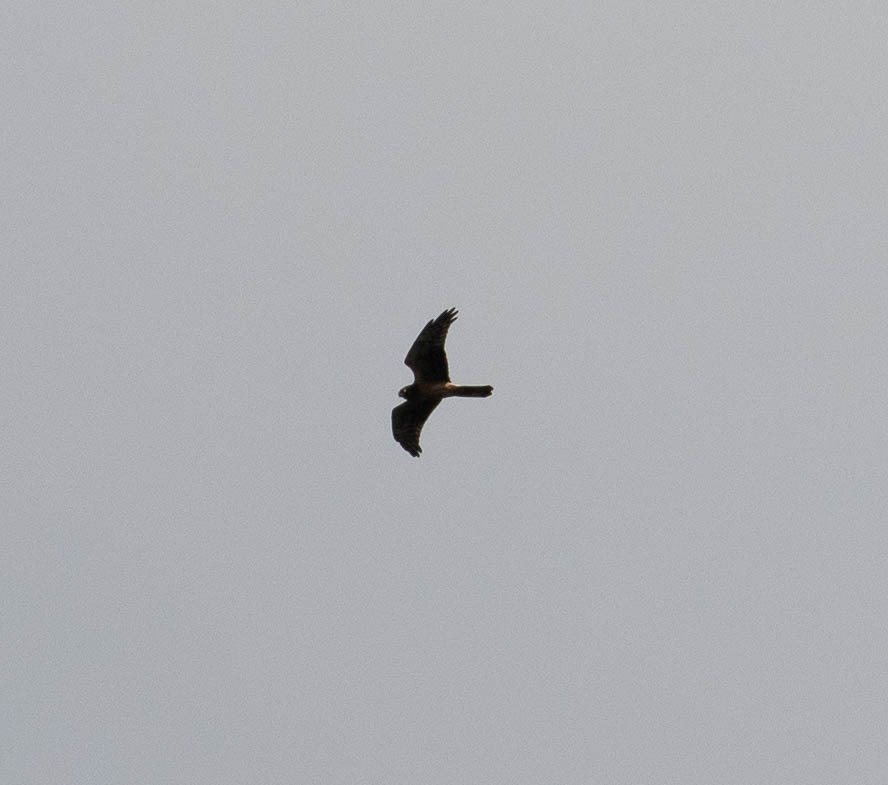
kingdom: Animalia
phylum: Chordata
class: Aves
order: Accipitriformes
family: Accipitridae
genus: Circus
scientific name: Circus cyaneus
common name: Hen harrier
